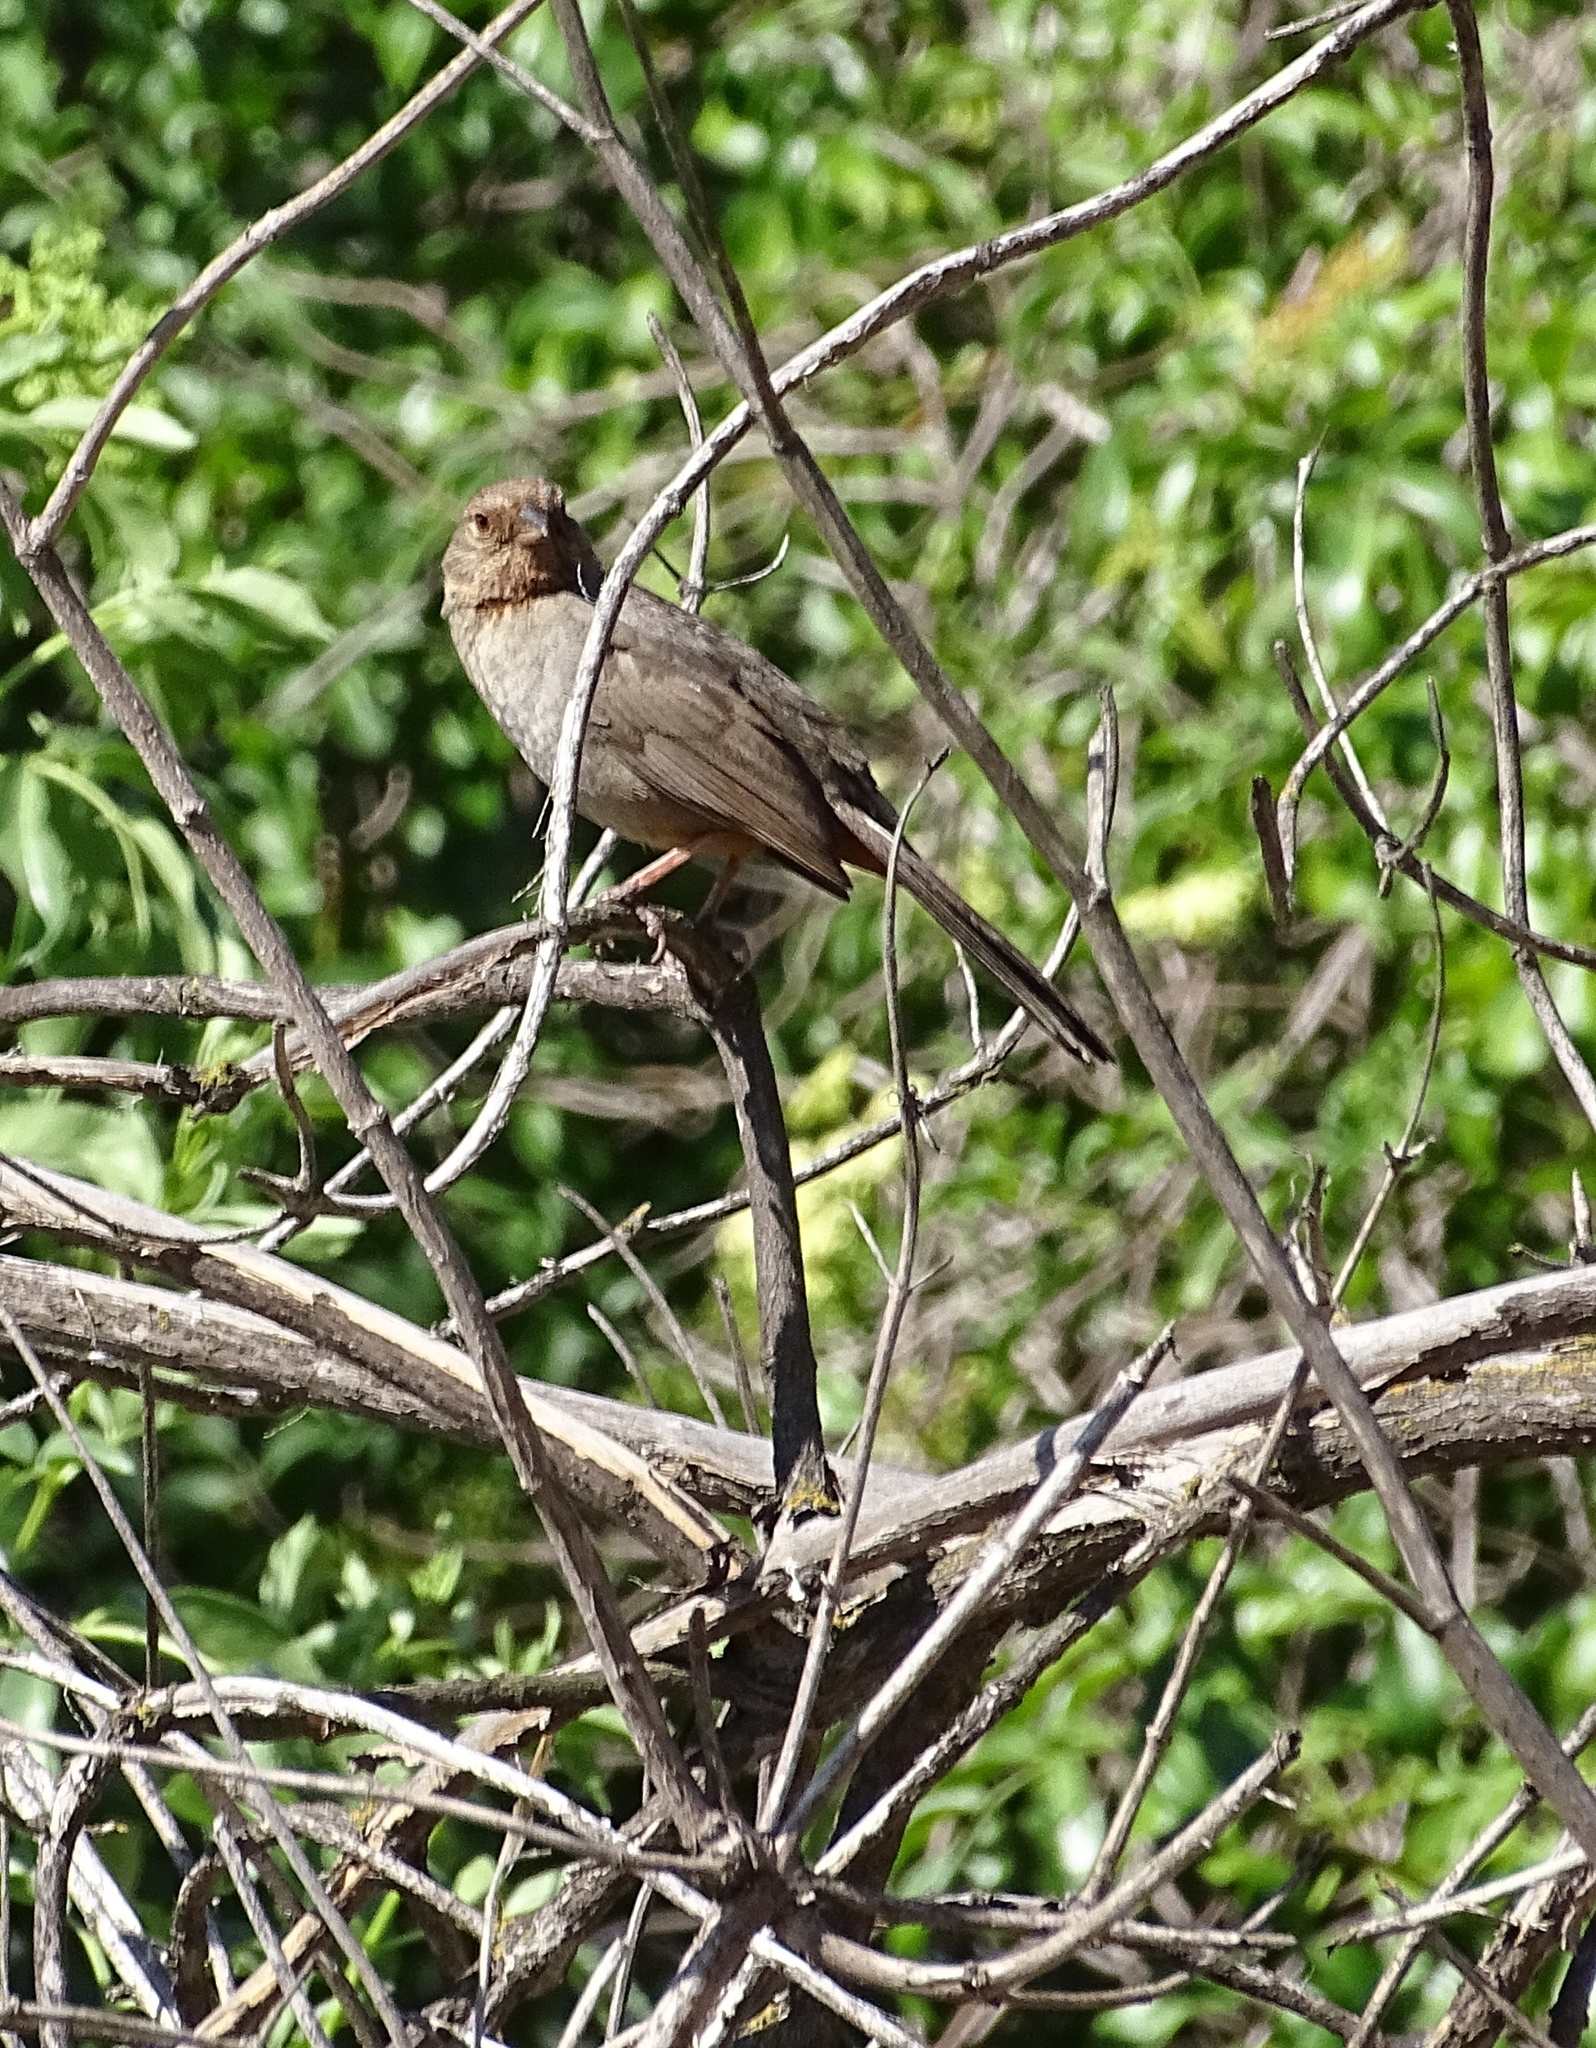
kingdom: Animalia
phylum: Chordata
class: Aves
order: Passeriformes
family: Passerellidae
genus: Melozone
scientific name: Melozone crissalis
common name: California towhee
